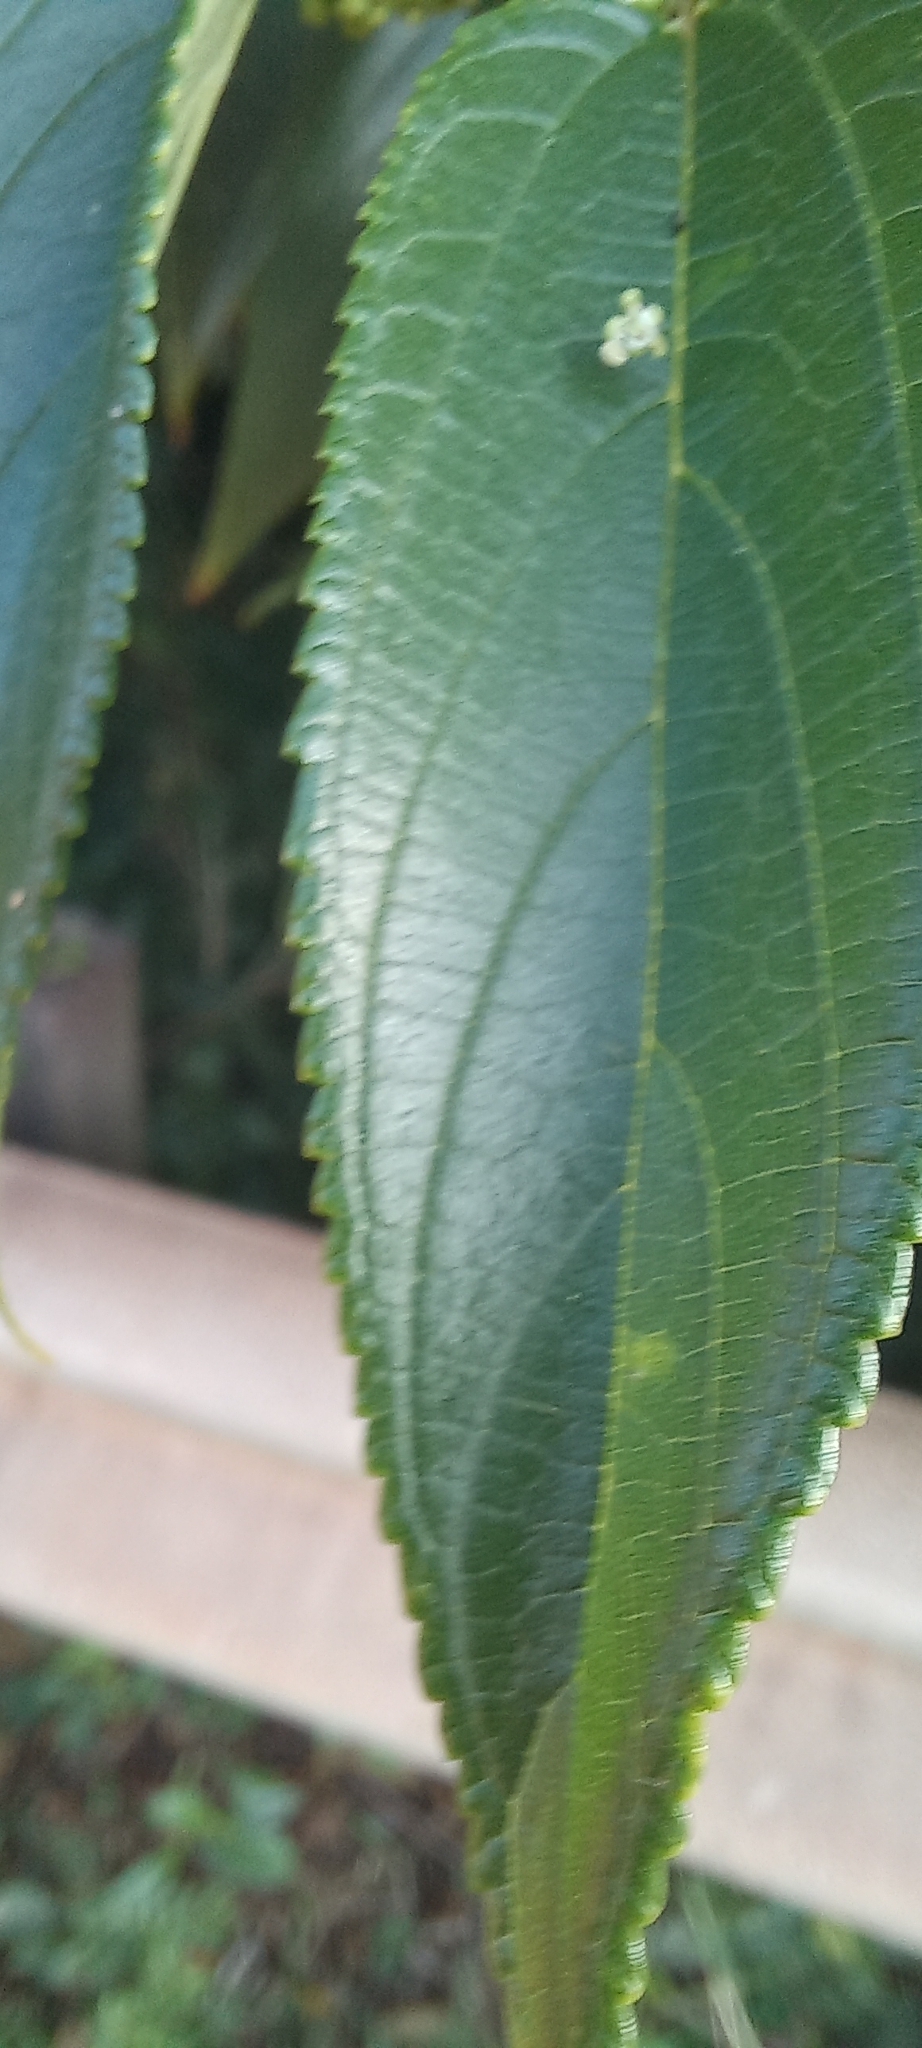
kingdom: Plantae
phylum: Tracheophyta
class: Magnoliopsida
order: Rosales
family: Cannabaceae
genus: Trema
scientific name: Trema orientale
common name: Indian charcoal tree
